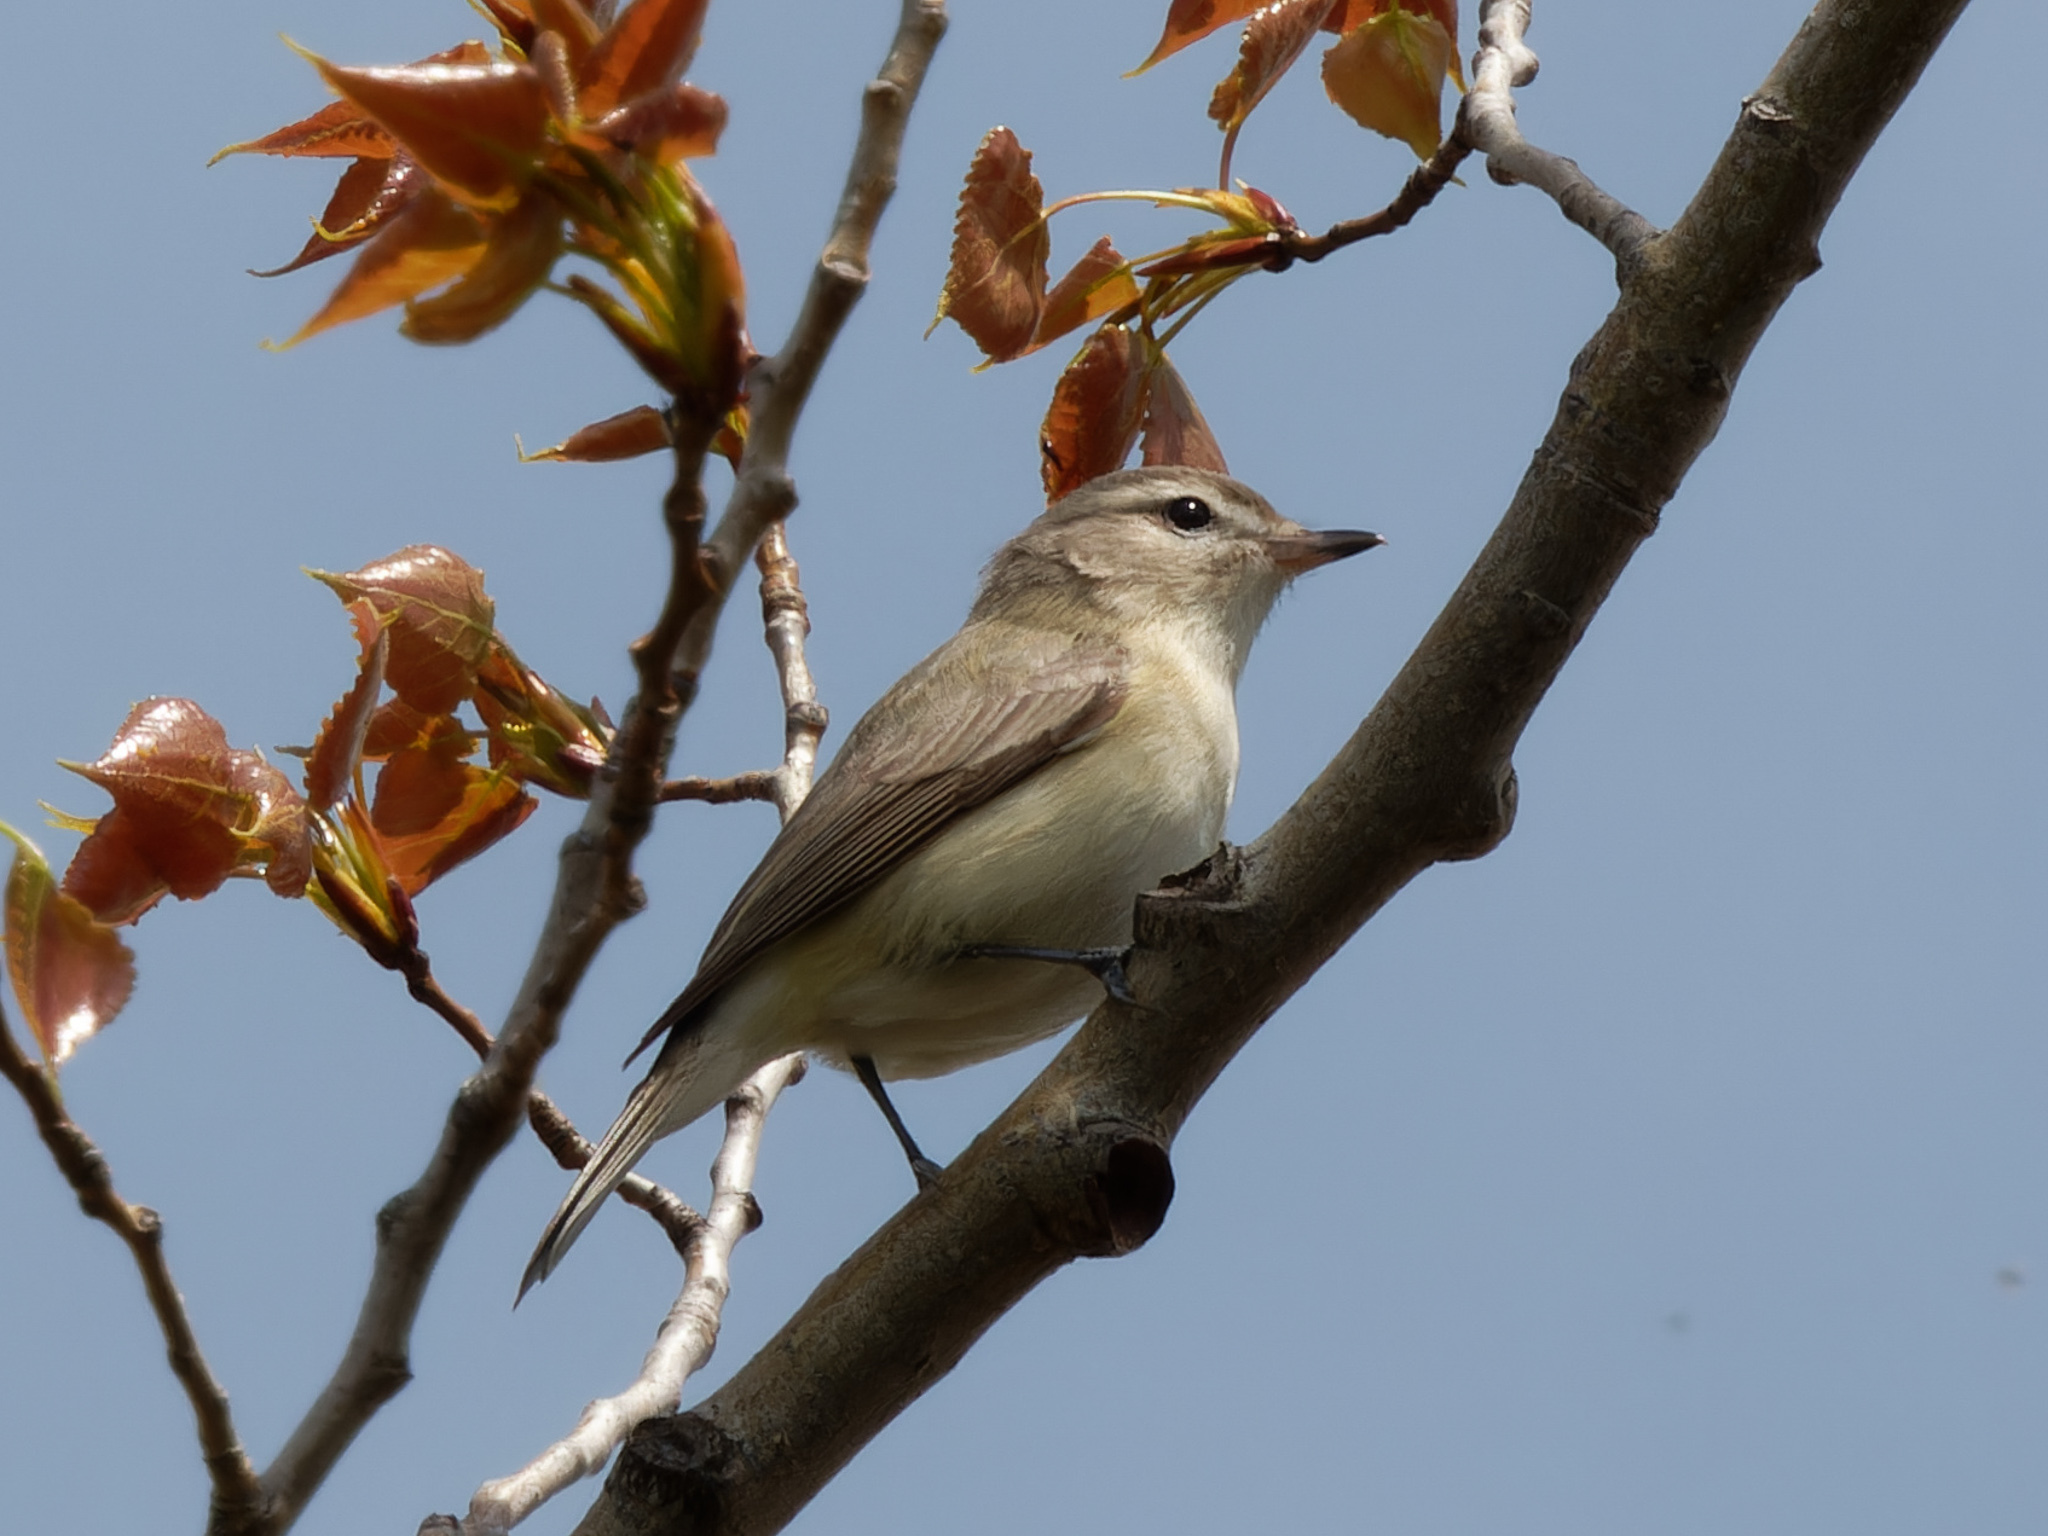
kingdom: Animalia
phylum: Chordata
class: Aves
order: Passeriformes
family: Vireonidae
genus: Vireo
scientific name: Vireo gilvus
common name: Warbling vireo
